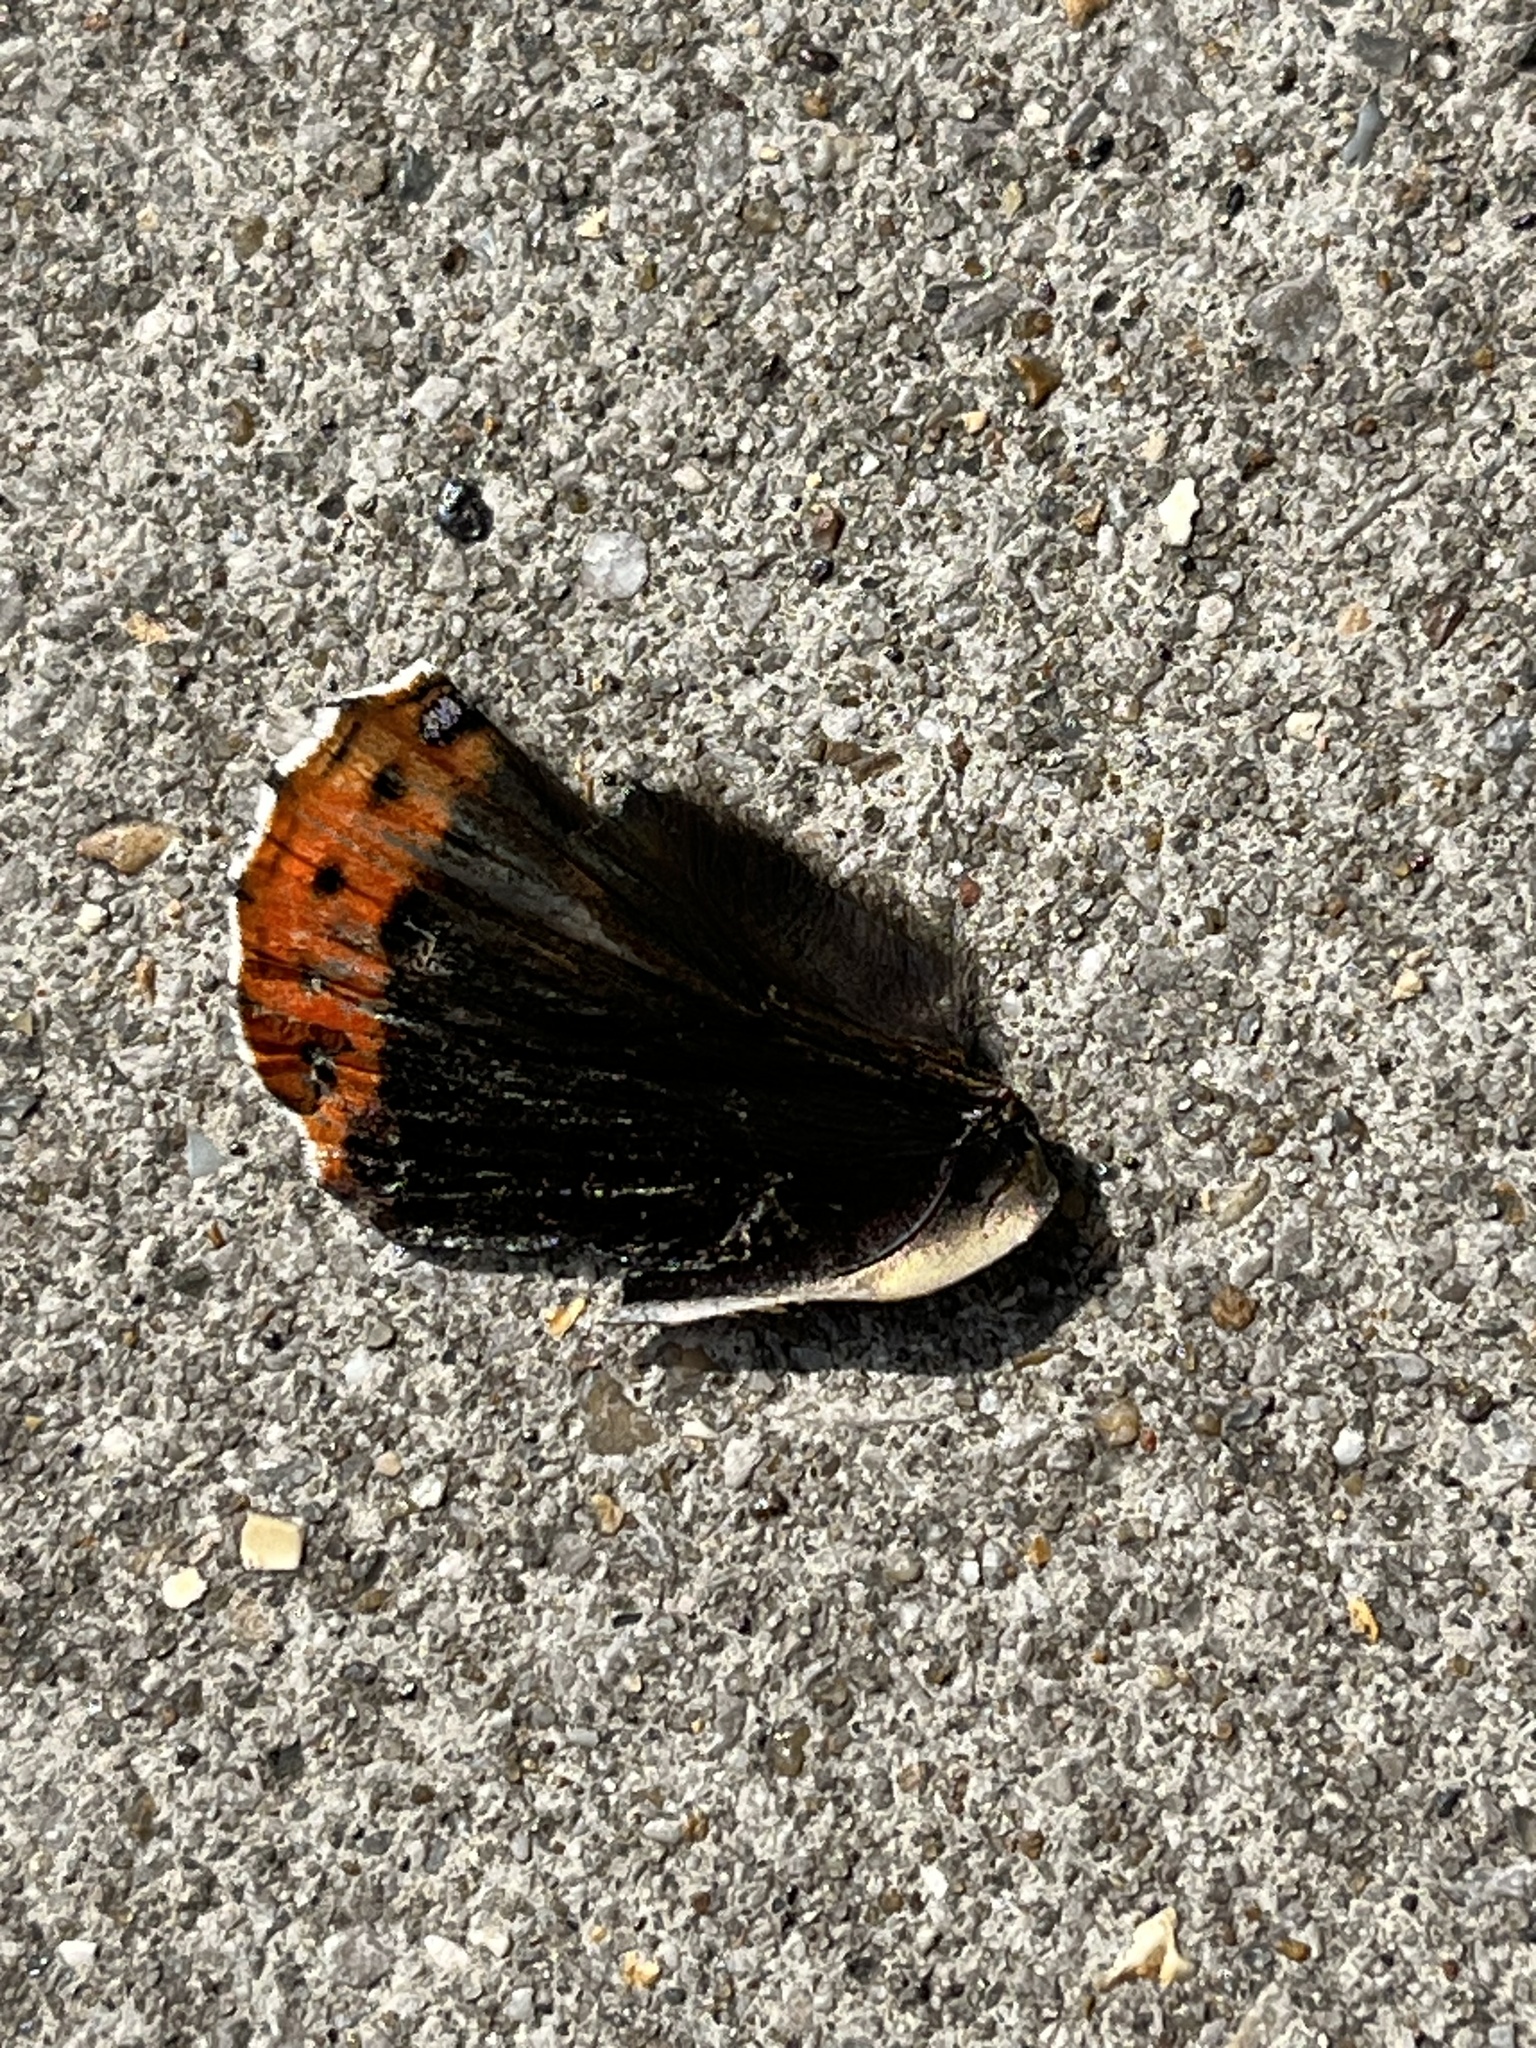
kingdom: Animalia
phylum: Arthropoda
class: Insecta
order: Lepidoptera
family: Nymphalidae
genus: Vanessa
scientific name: Vanessa atalanta
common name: Red admiral
